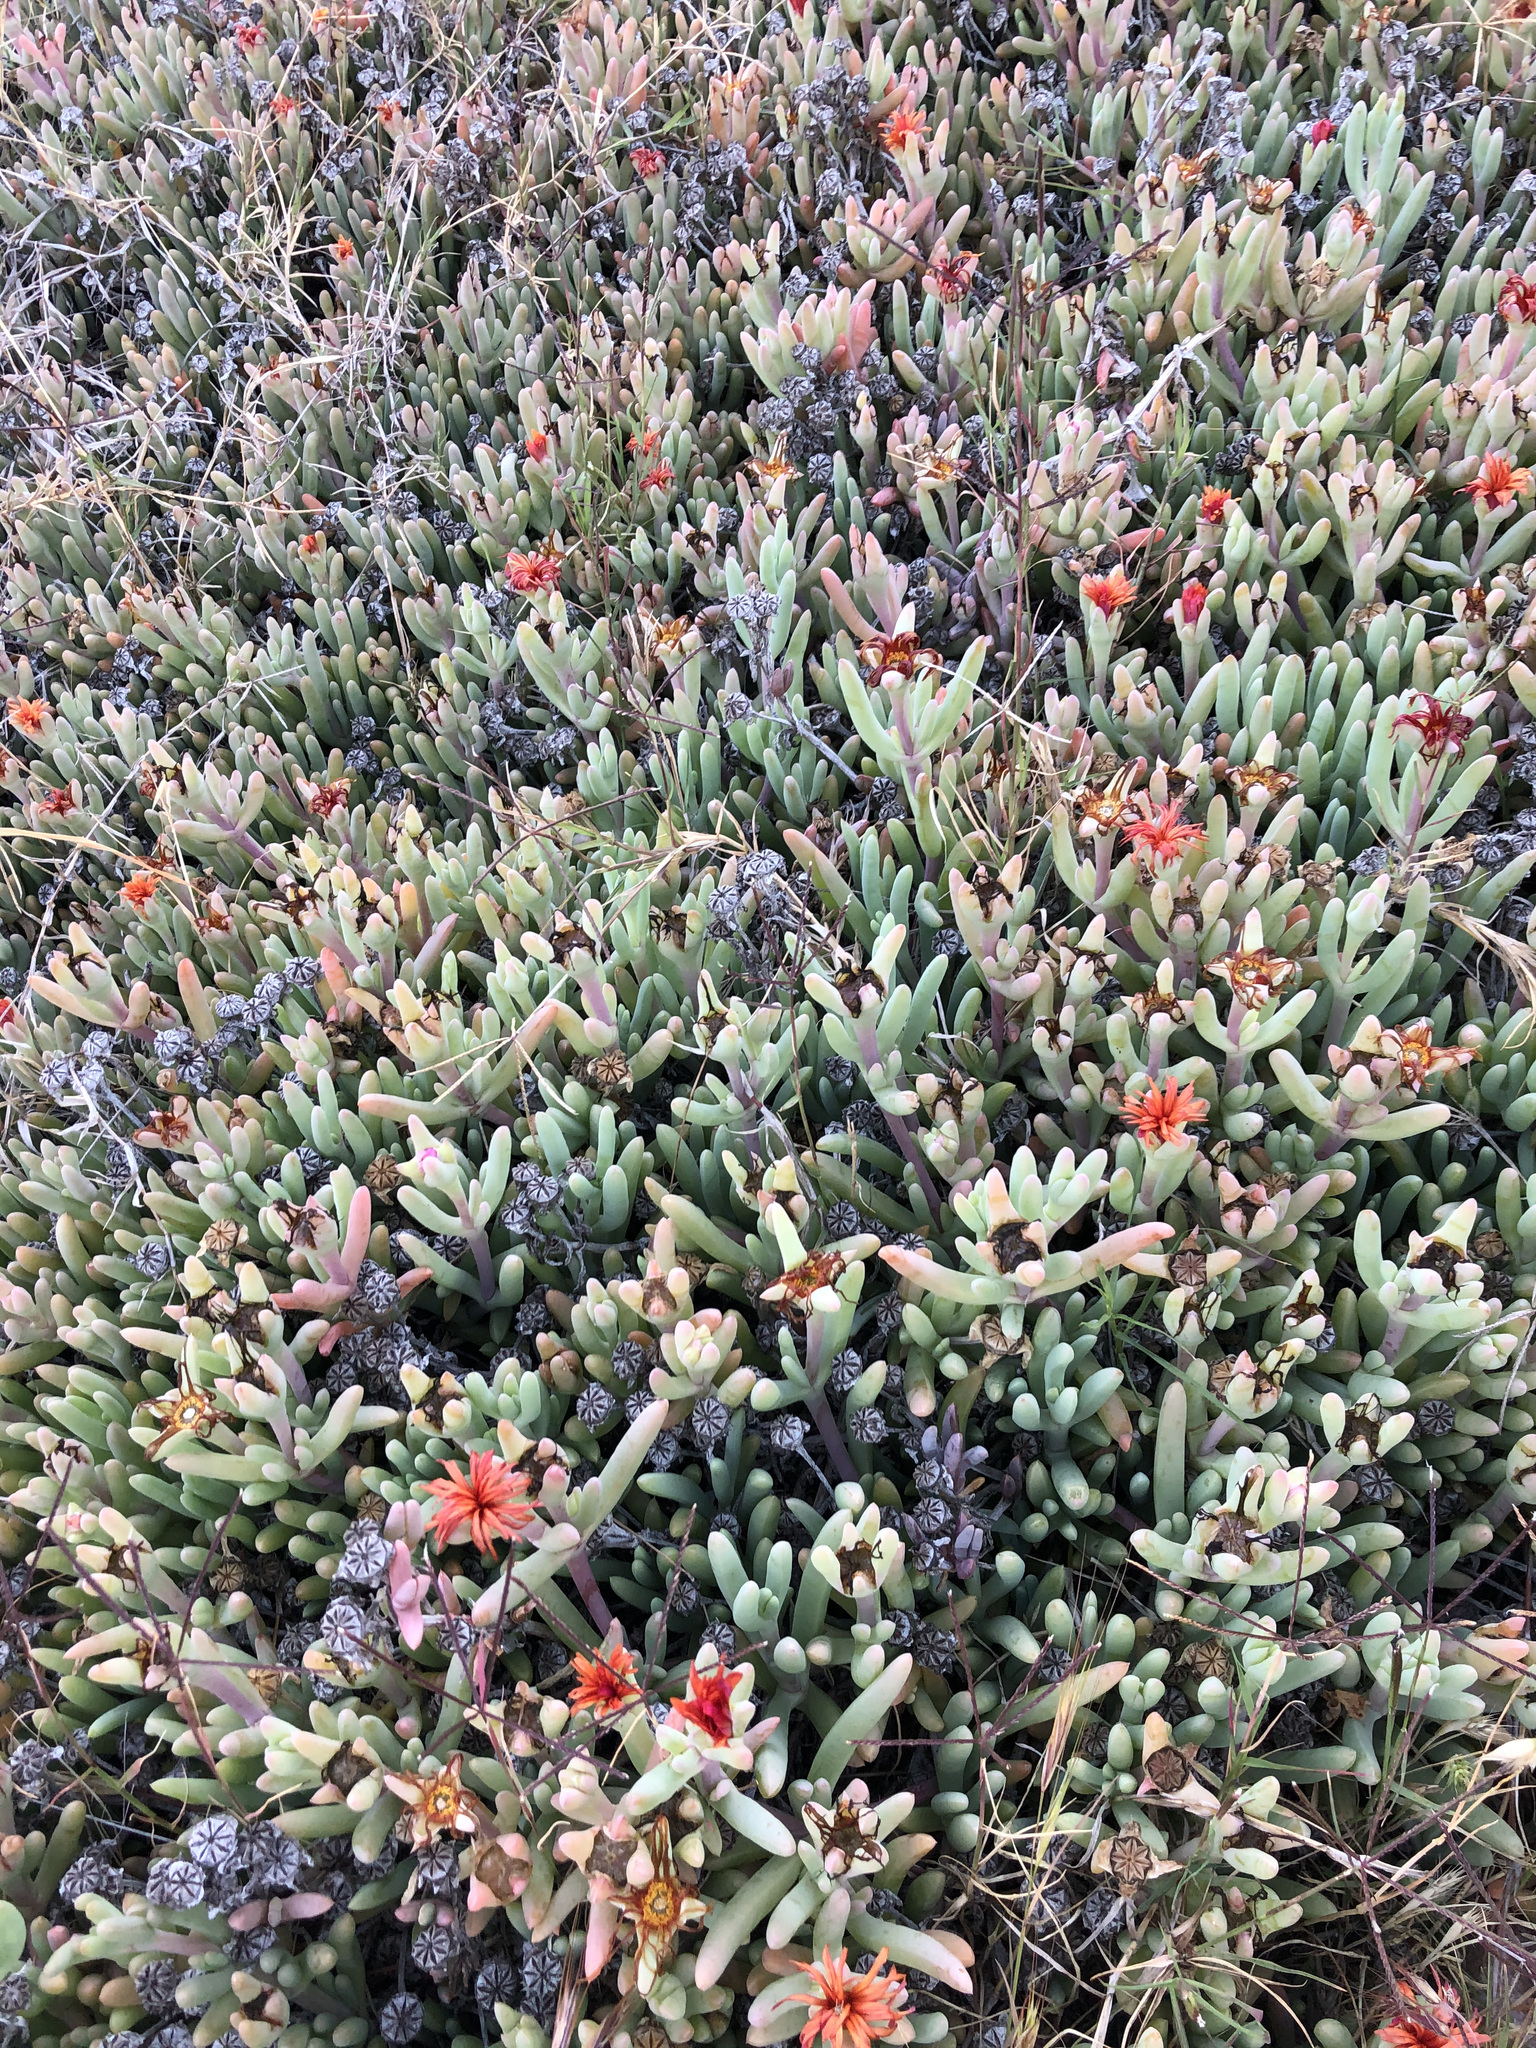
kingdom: Plantae
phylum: Tracheophyta
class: Magnoliopsida
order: Caryophyllales
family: Aizoaceae
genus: Malephora
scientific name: Malephora crocea
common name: Coppery mesemb
